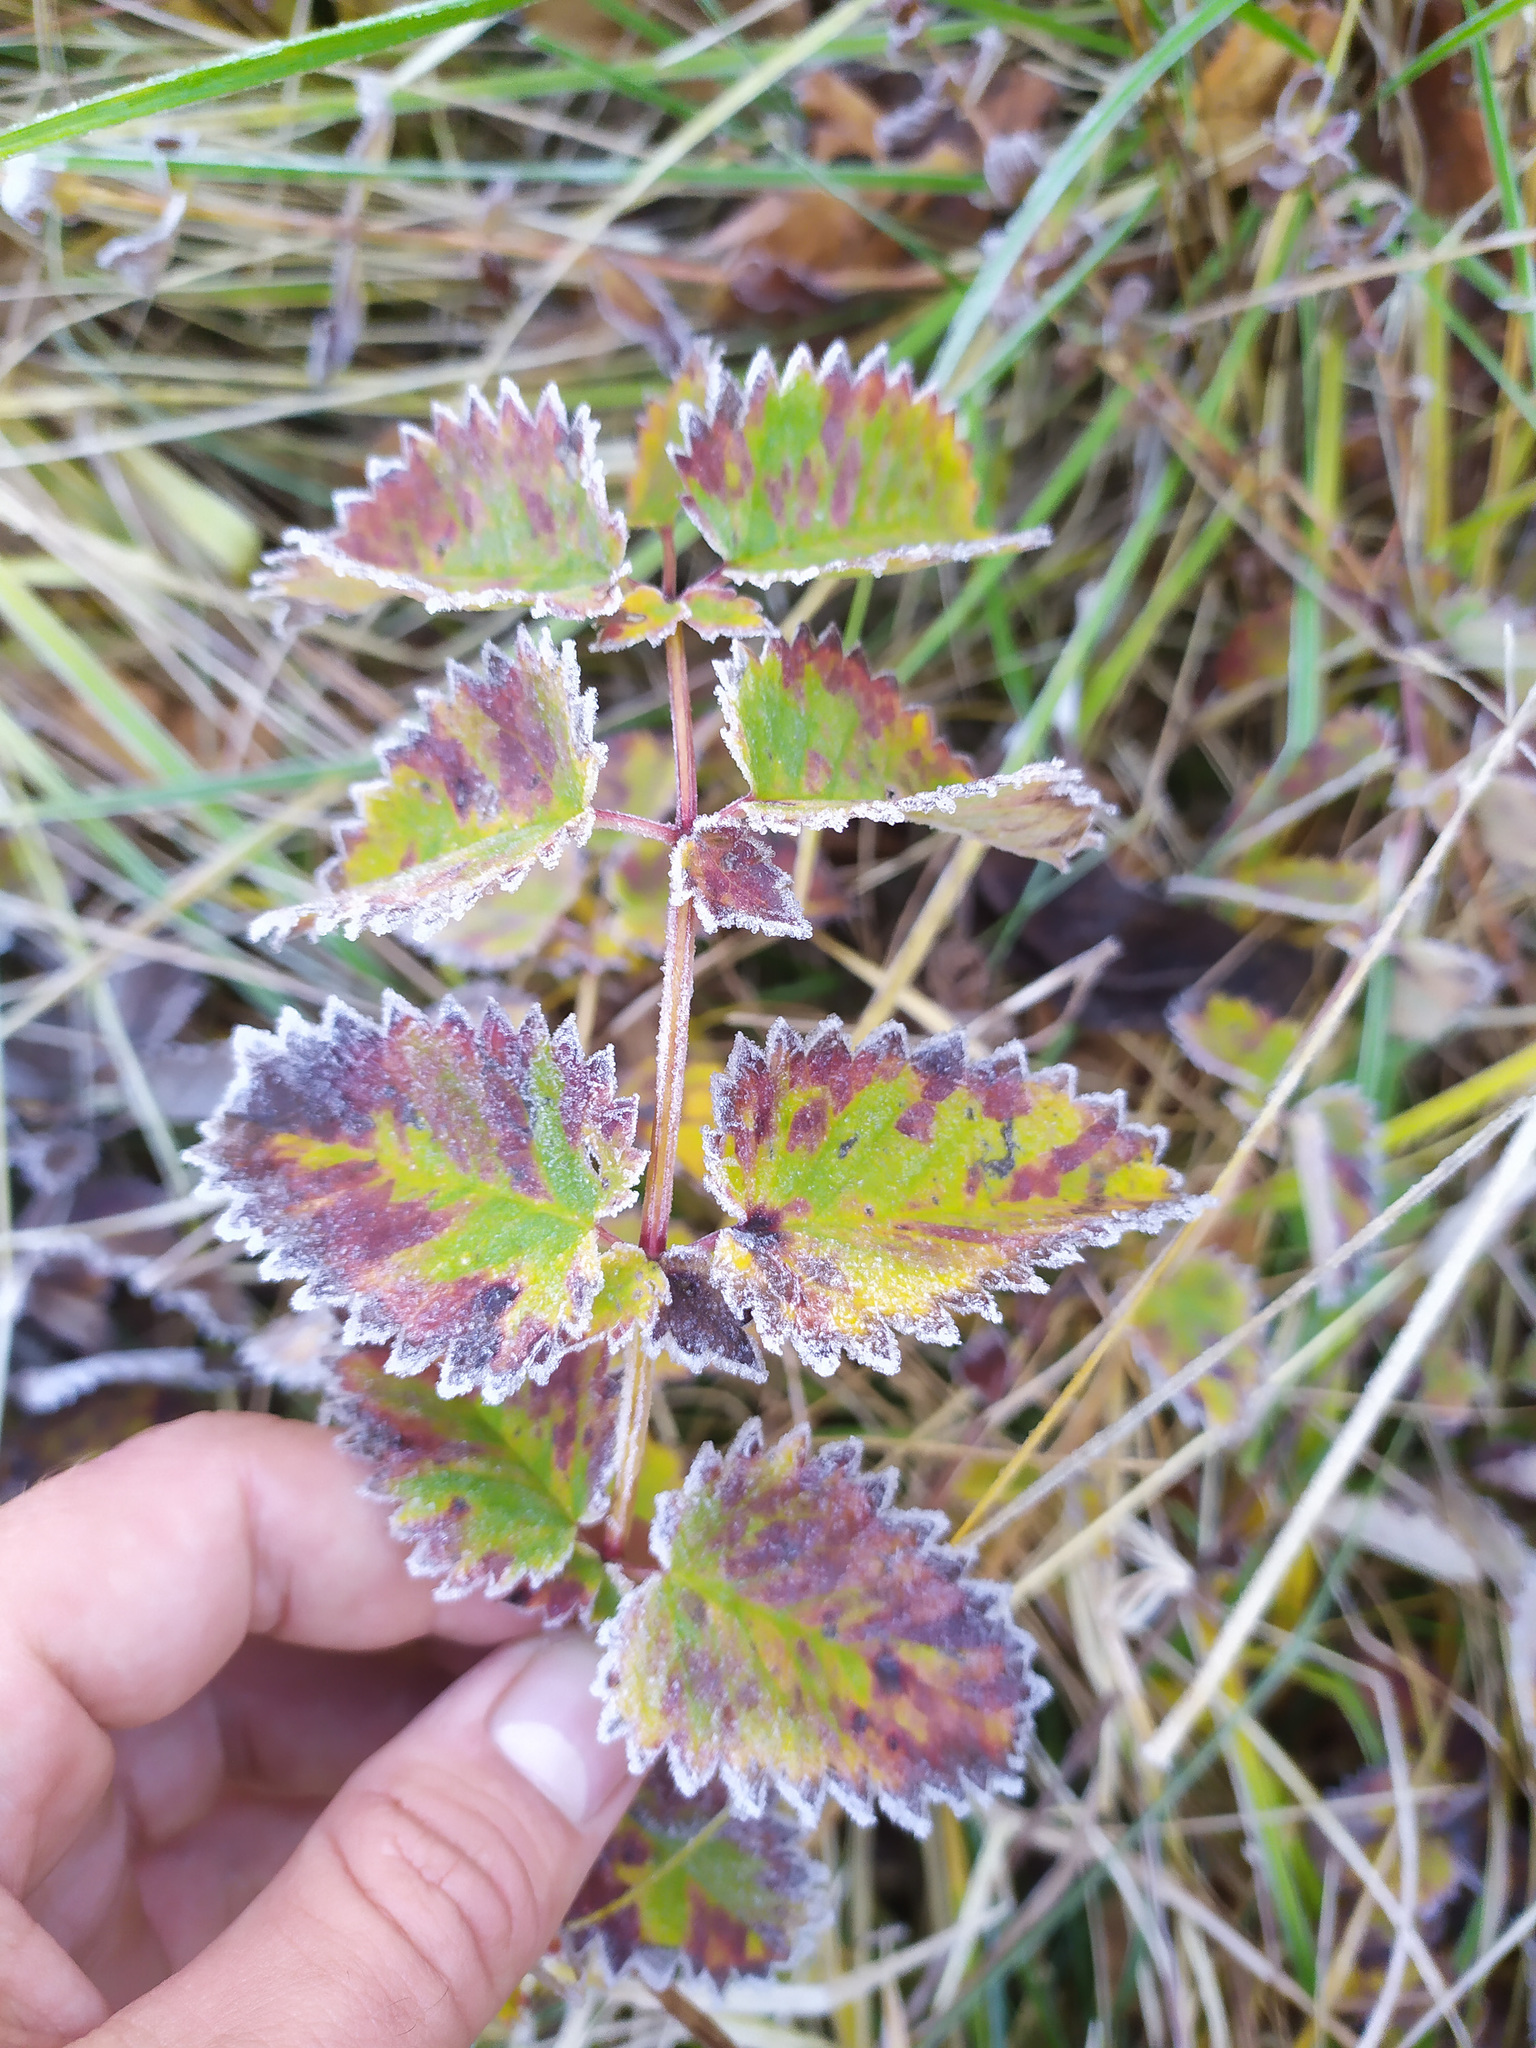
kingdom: Plantae
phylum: Tracheophyta
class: Magnoliopsida
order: Rosales
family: Rosaceae
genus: Sanguisorba
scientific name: Sanguisorba officinalis
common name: Great burnet
